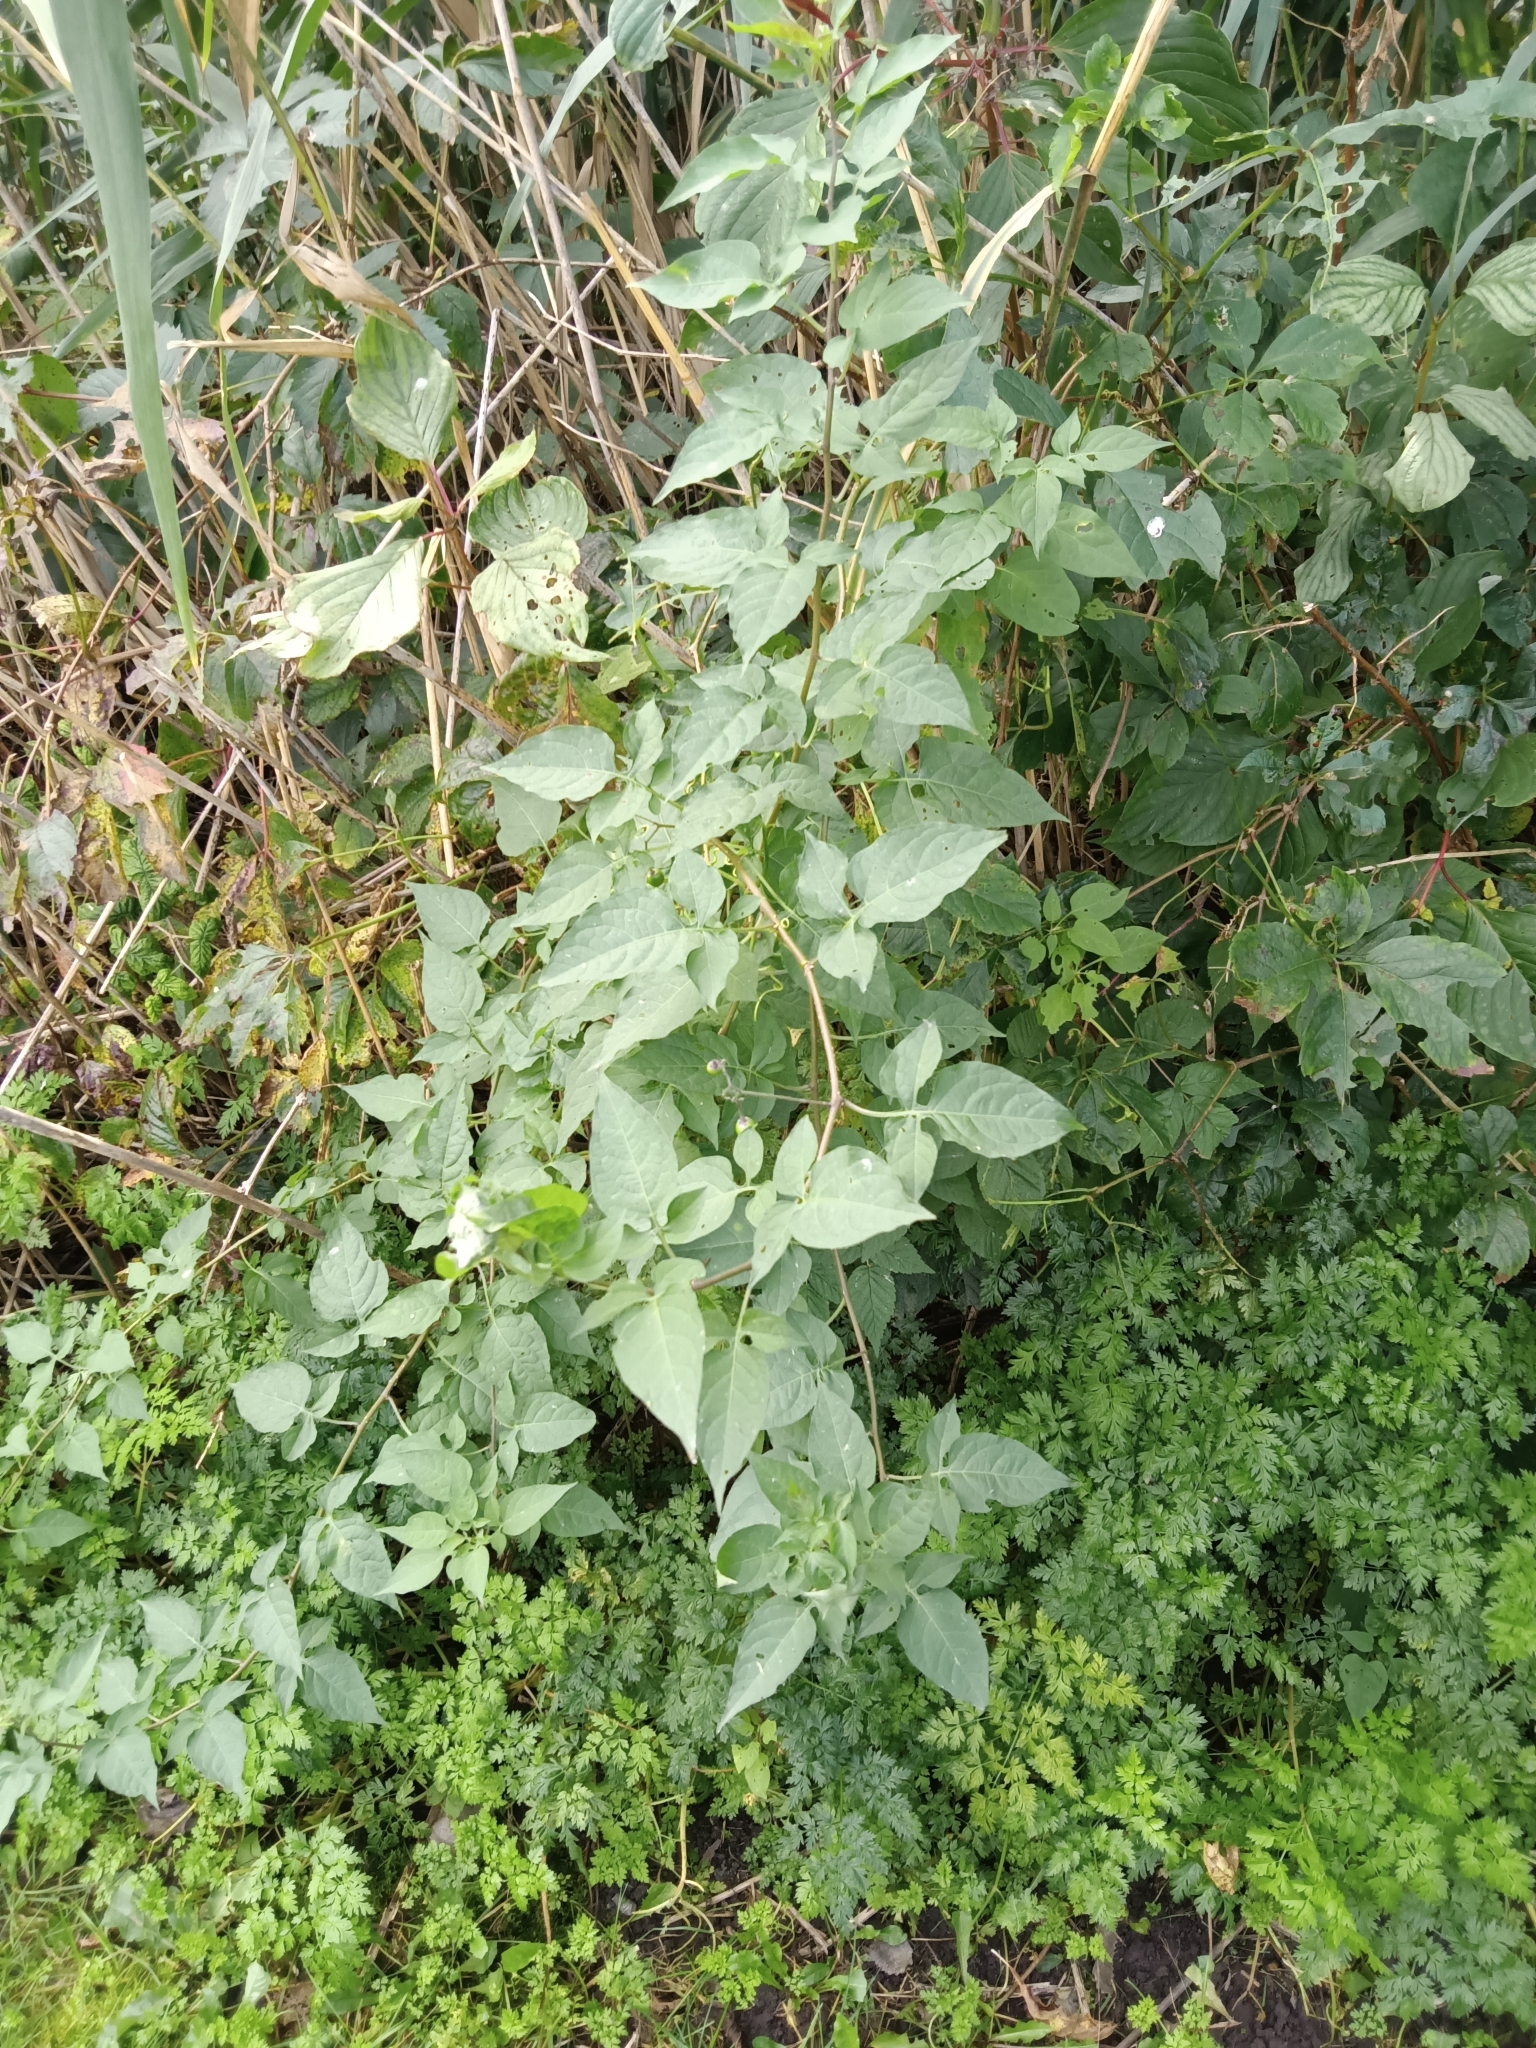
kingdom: Plantae
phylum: Tracheophyta
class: Magnoliopsida
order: Solanales
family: Solanaceae
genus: Solanum
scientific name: Solanum dulcamara
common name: Climbing nightshade
